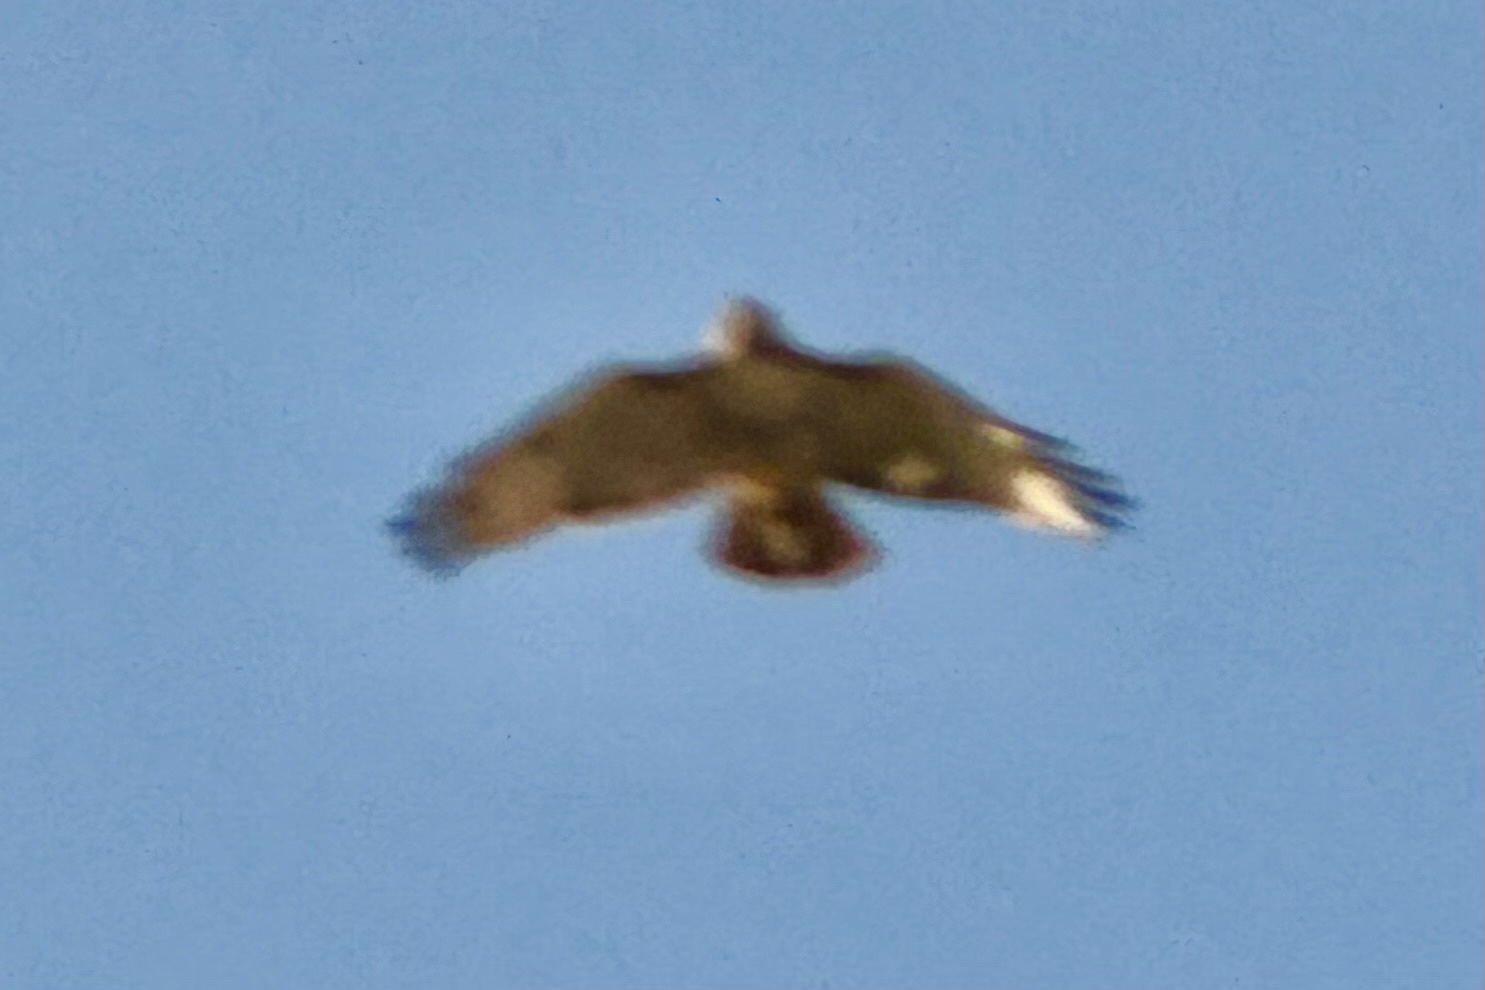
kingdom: Animalia
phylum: Chordata
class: Aves
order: Accipitriformes
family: Accipitridae
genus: Buteo
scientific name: Buteo jamaicensis
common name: Red-tailed hawk
